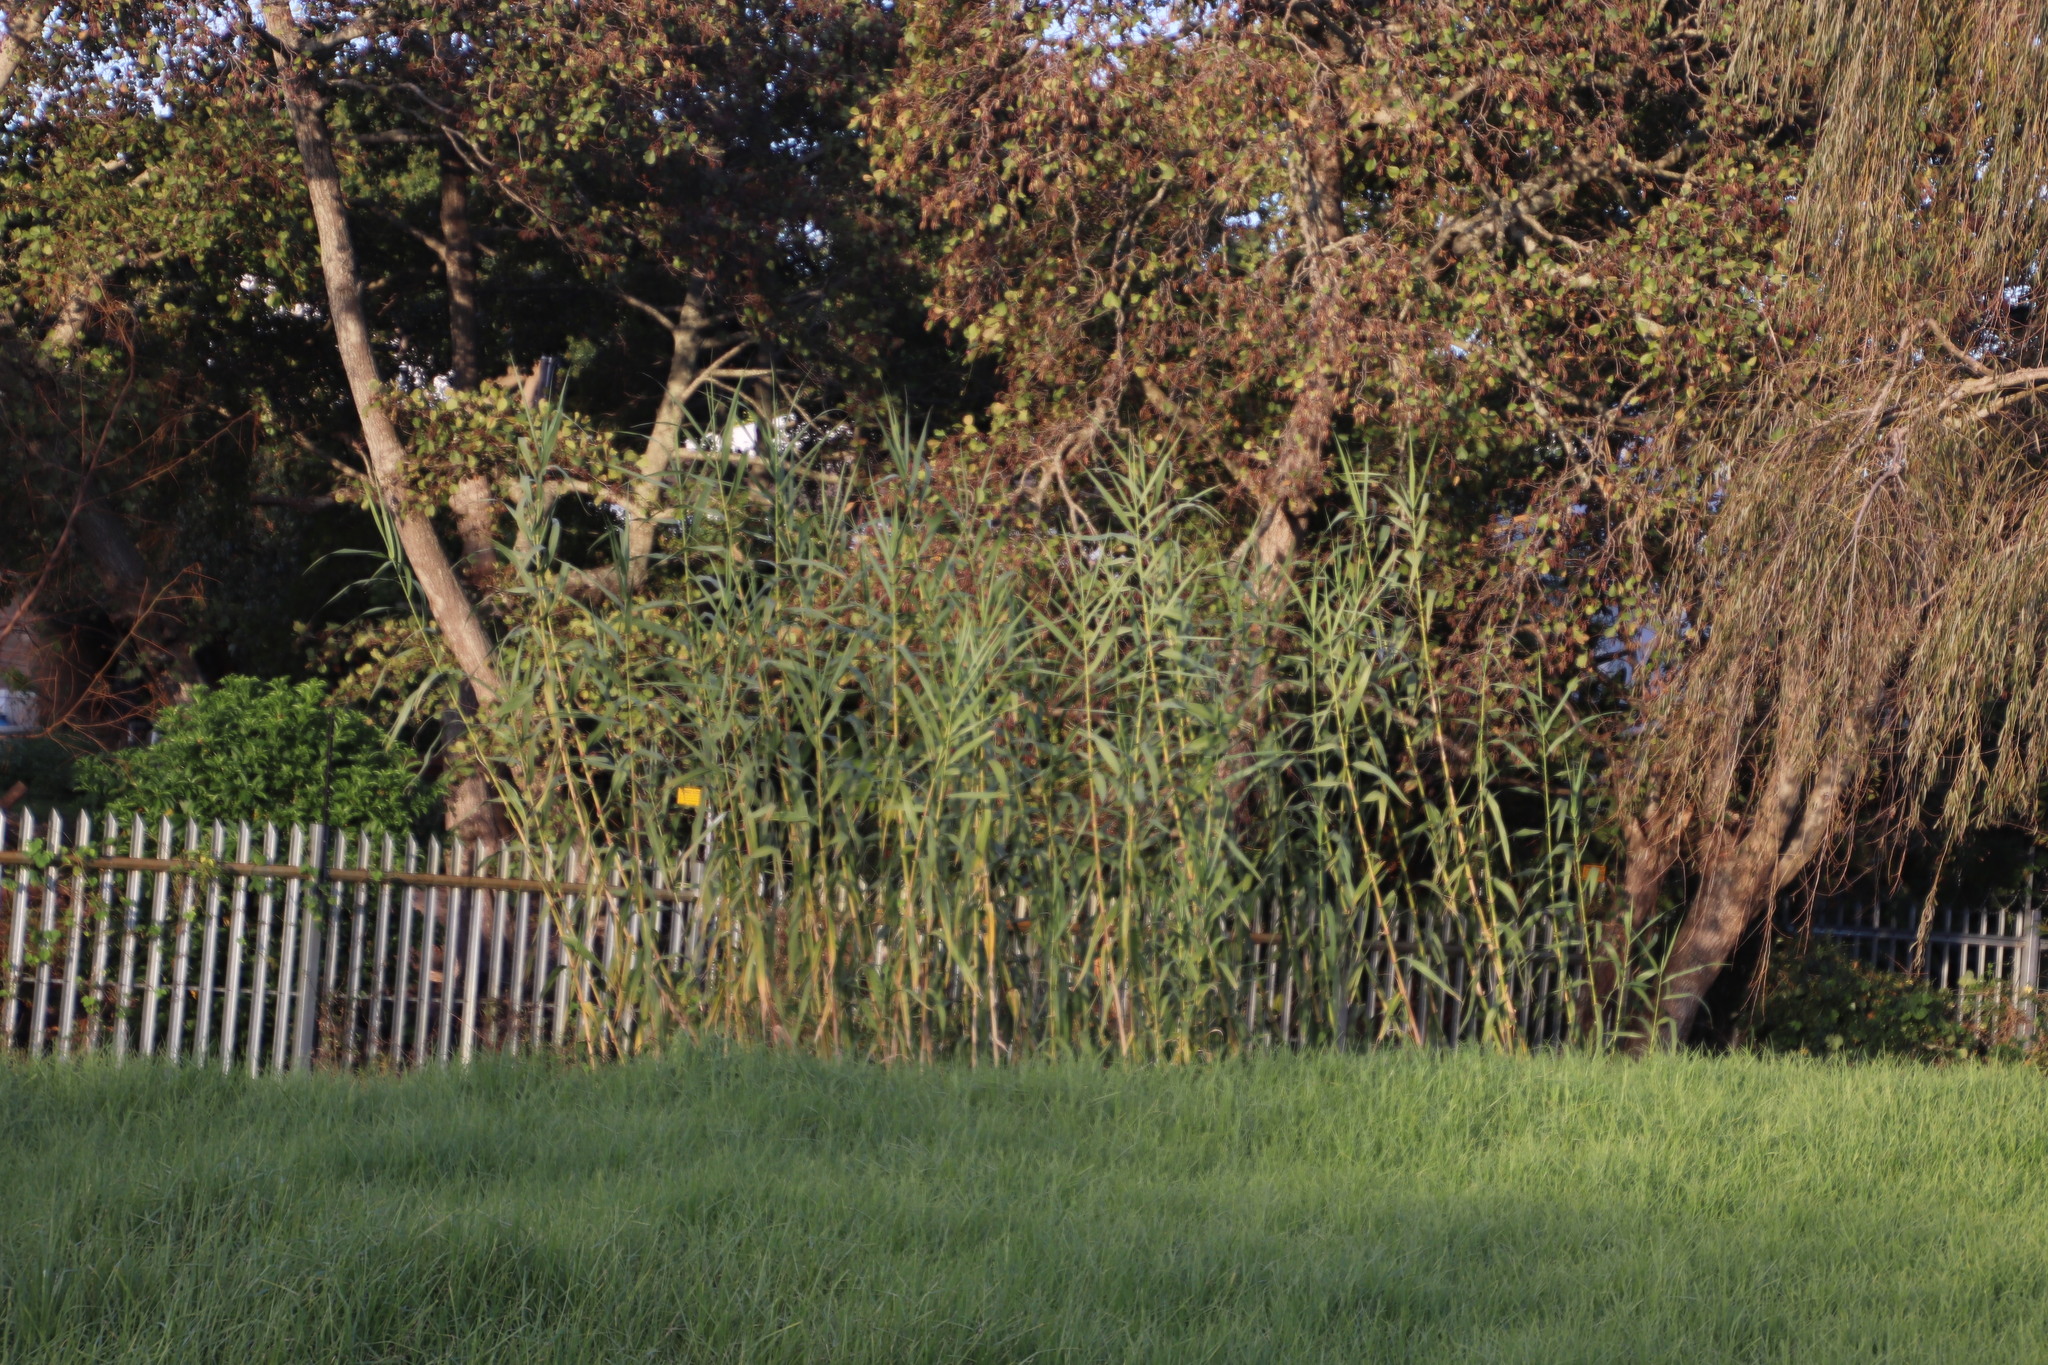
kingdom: Plantae
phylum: Tracheophyta
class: Liliopsida
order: Poales
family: Poaceae
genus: Arundo
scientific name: Arundo donax
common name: Giant reed
